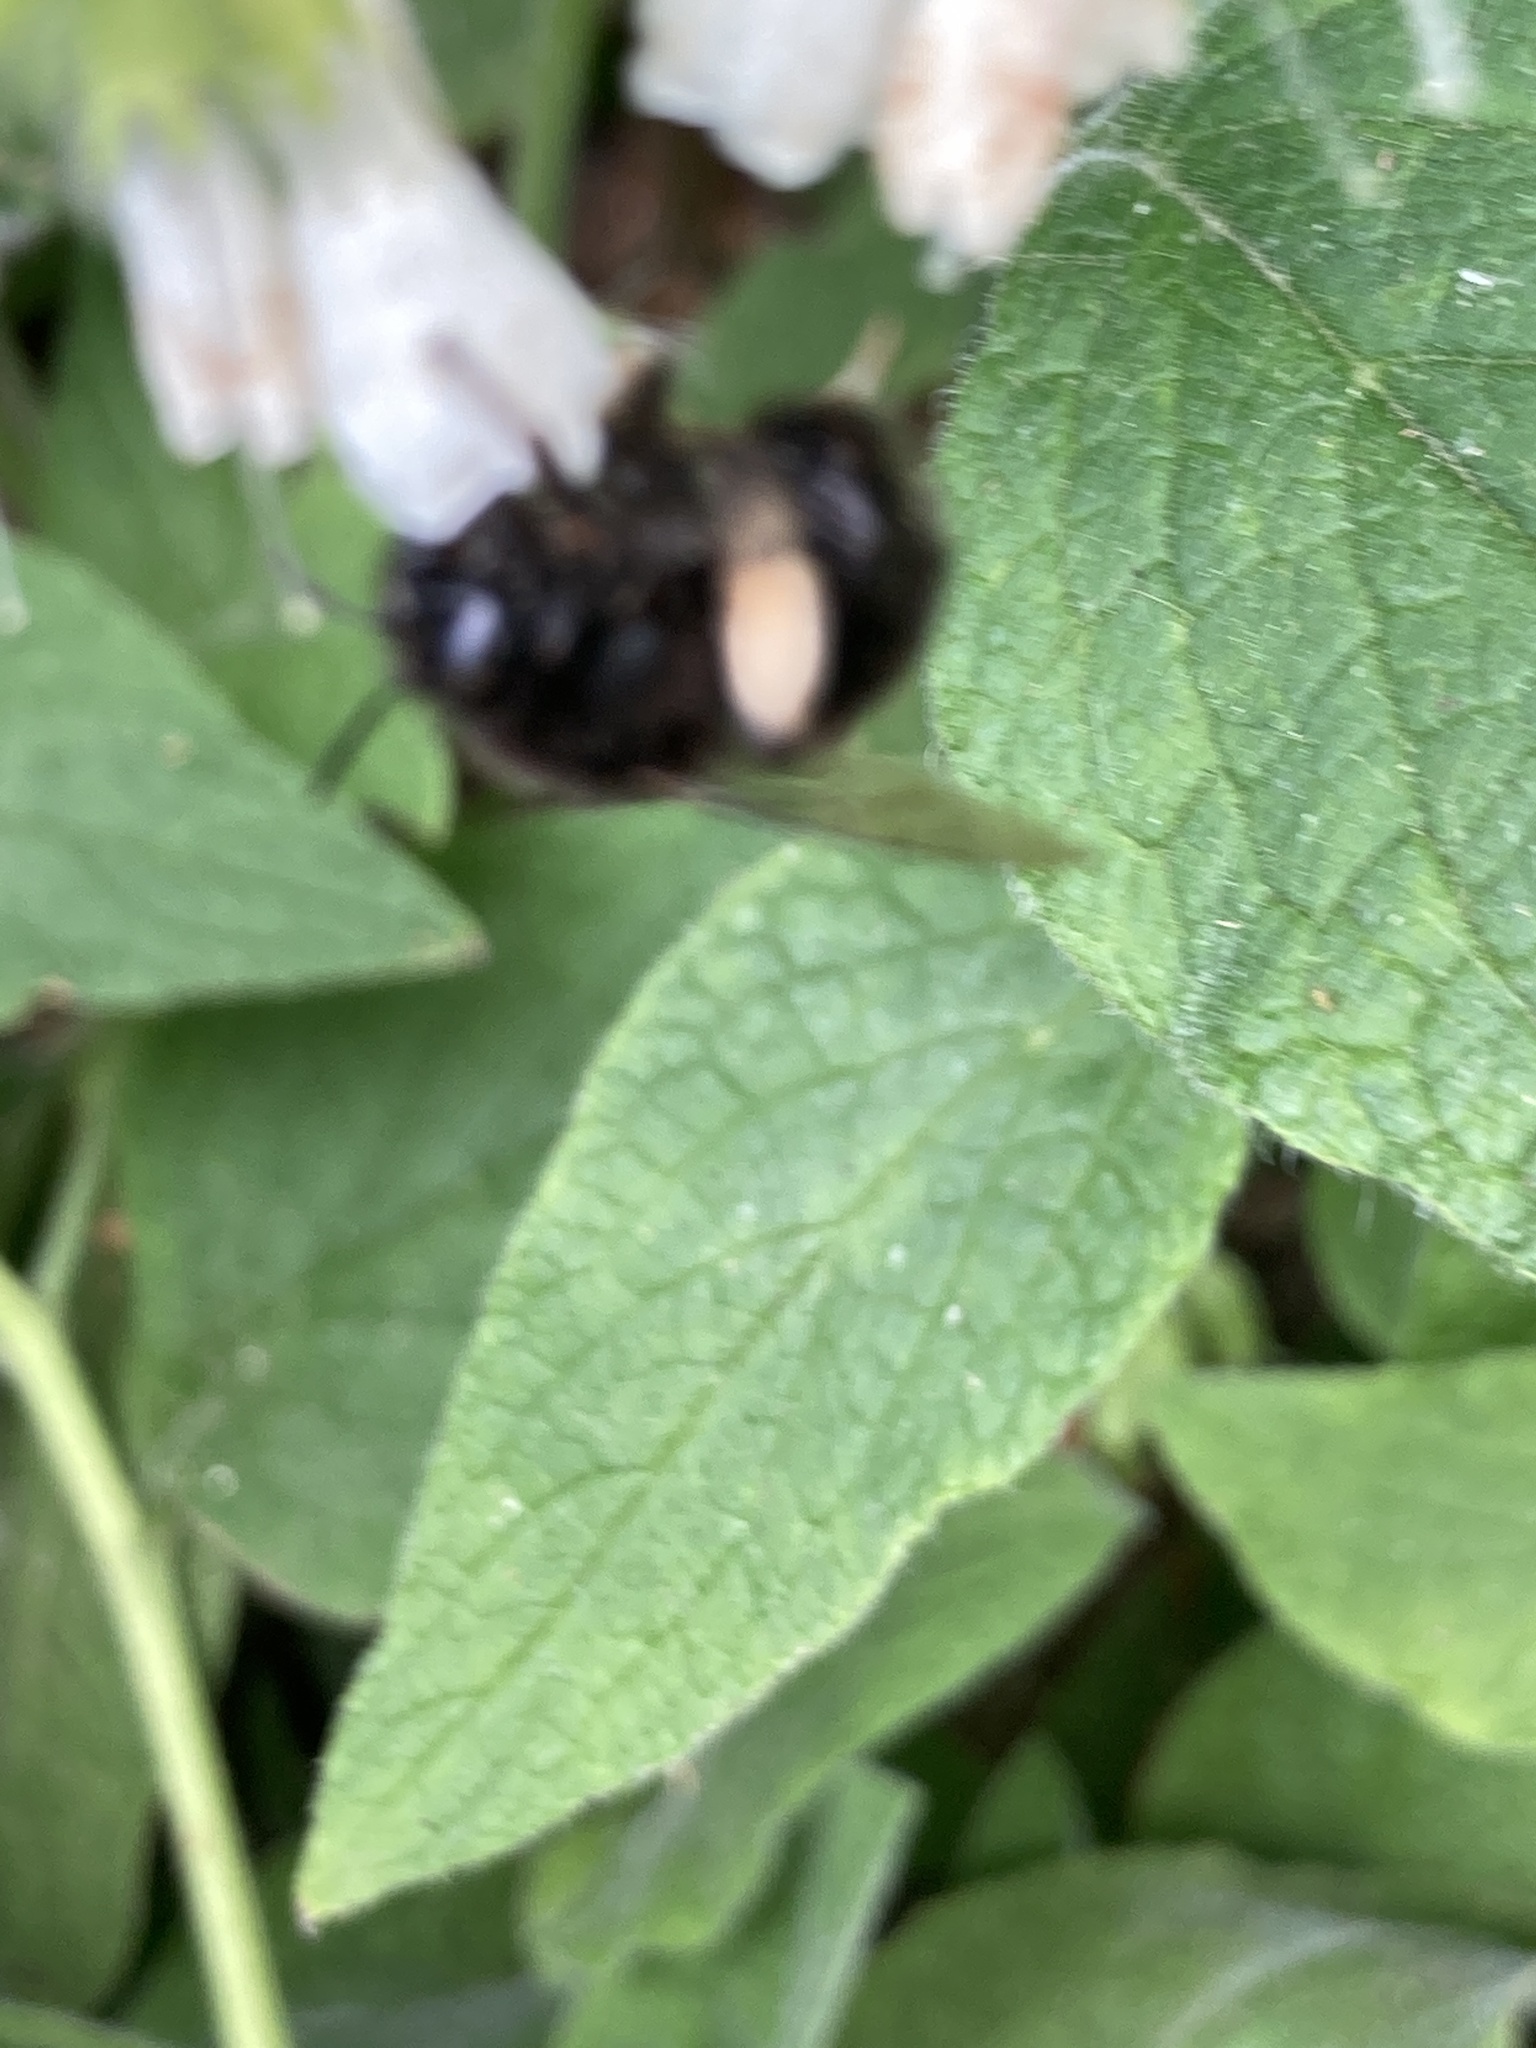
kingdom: Animalia
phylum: Arthropoda
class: Insecta
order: Hymenoptera
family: Apidae
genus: Anthophora
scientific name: Anthophora plumipes
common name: Hairy-footed flower bee
